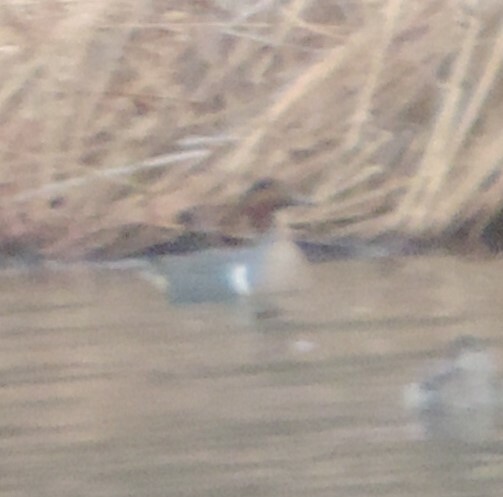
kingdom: Animalia
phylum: Chordata
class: Aves
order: Anseriformes
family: Anatidae
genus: Anas
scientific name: Anas crecca
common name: Eurasian teal
